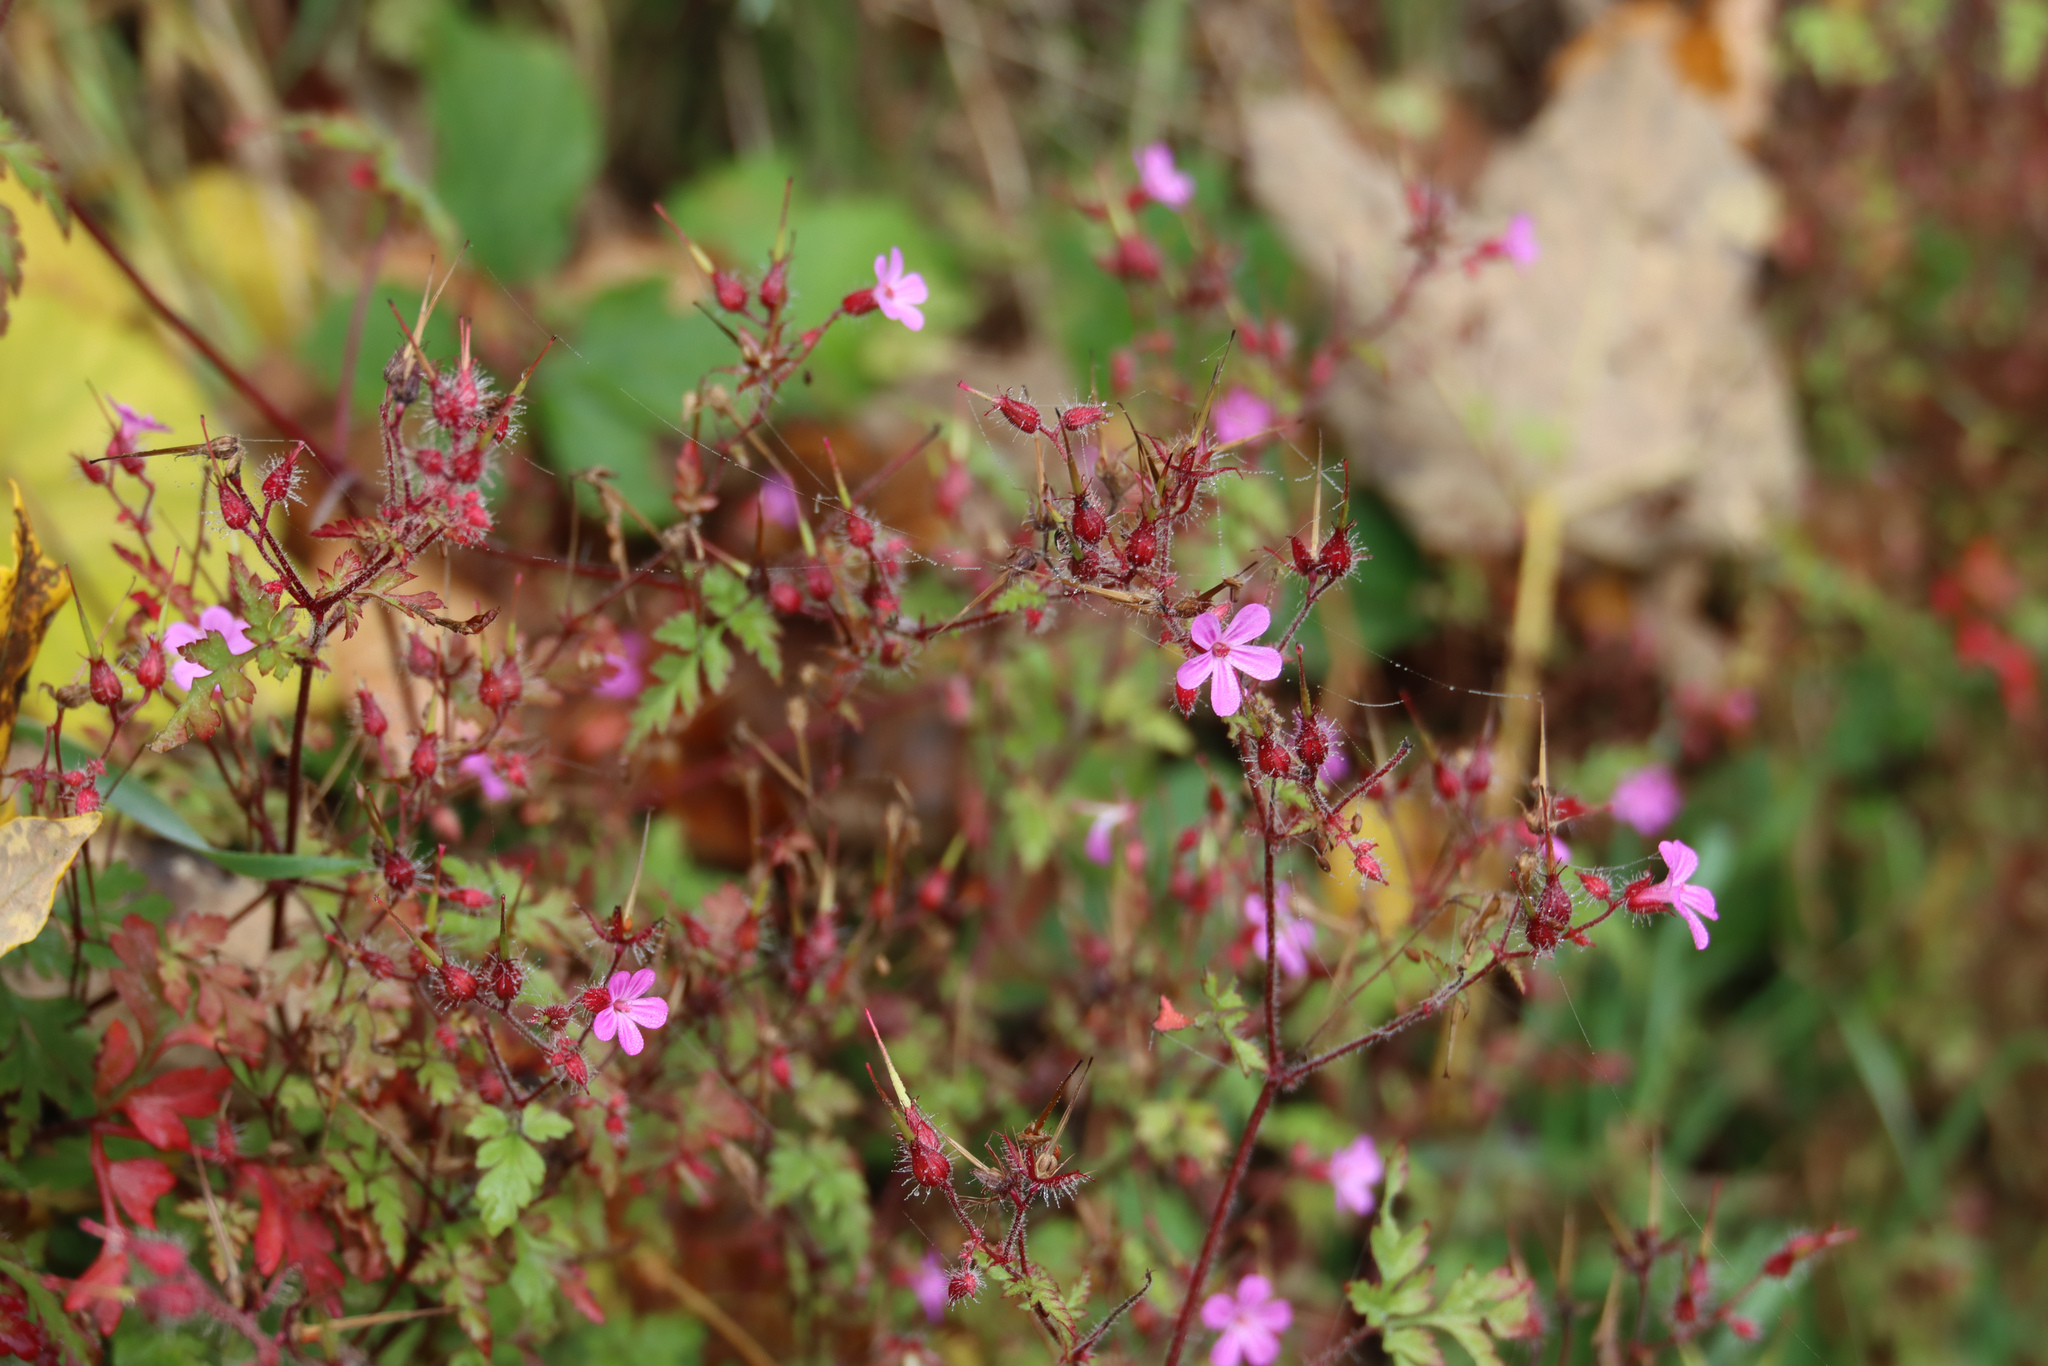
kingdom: Plantae
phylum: Tracheophyta
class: Magnoliopsida
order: Geraniales
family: Geraniaceae
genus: Geranium
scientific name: Geranium robertianum
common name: Herb-robert
